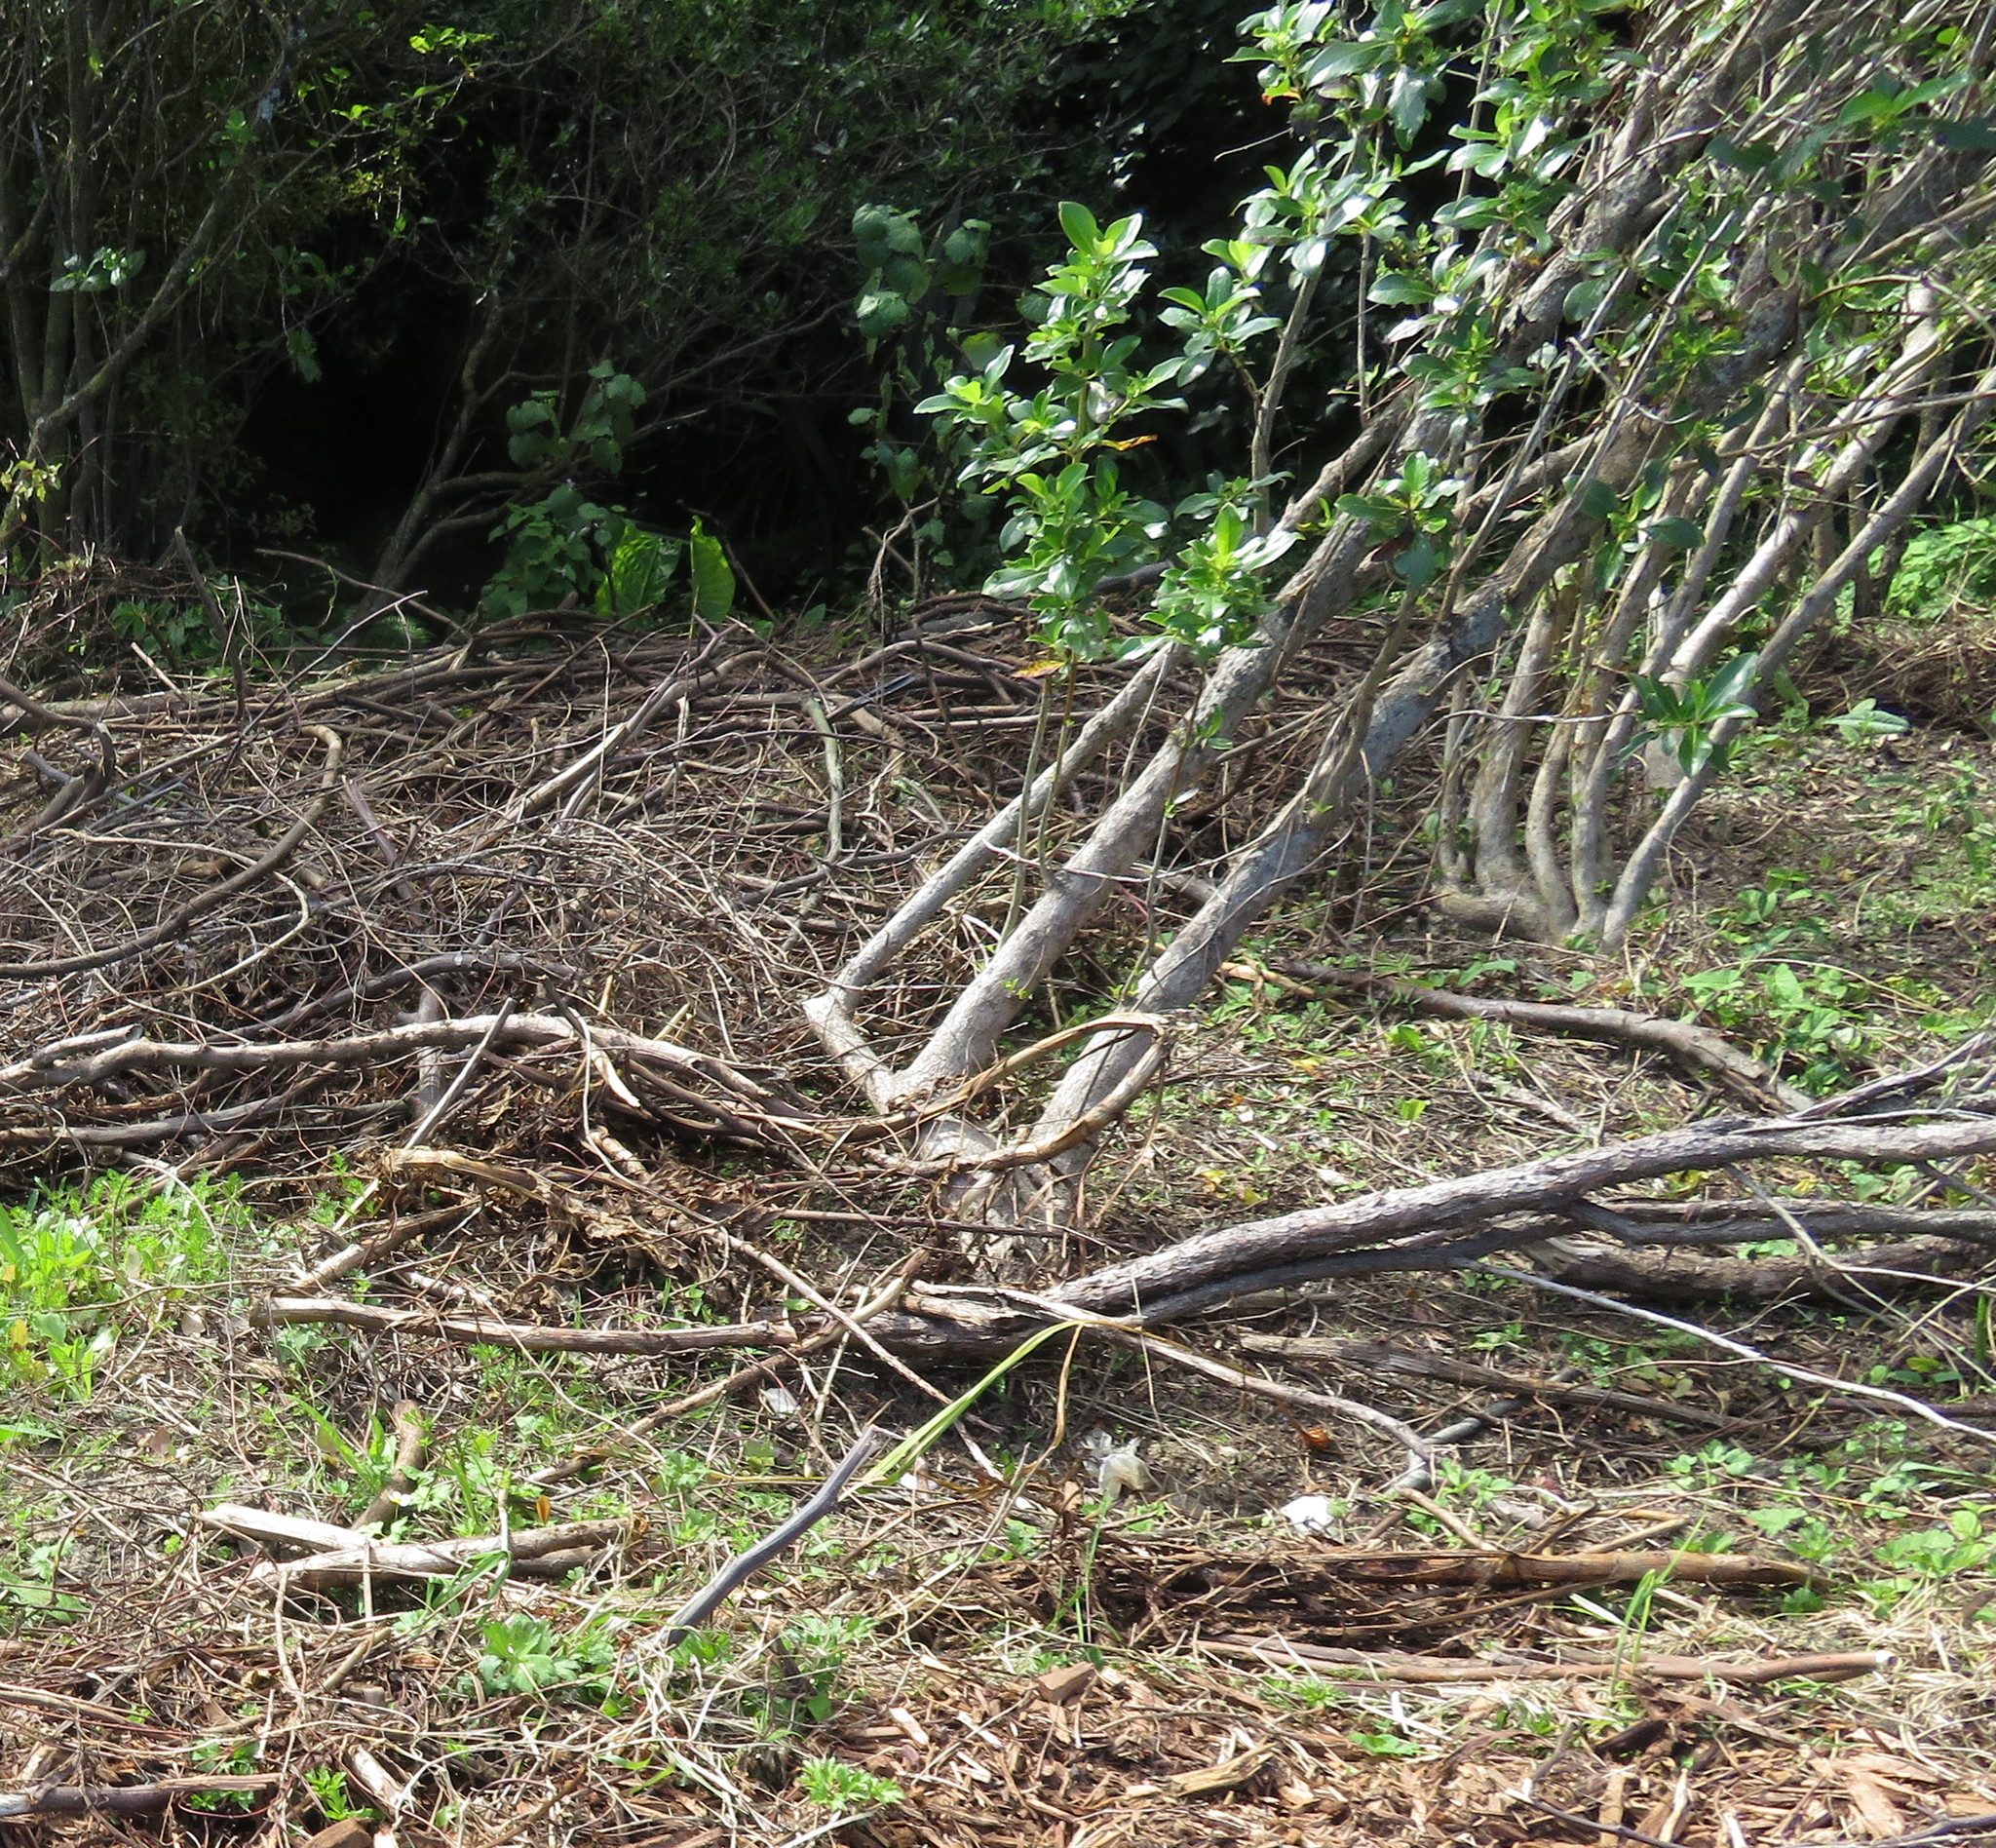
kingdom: Plantae
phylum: Tracheophyta
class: Magnoliopsida
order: Gentianales
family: Rubiaceae
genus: Coprosma
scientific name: Coprosma robusta
